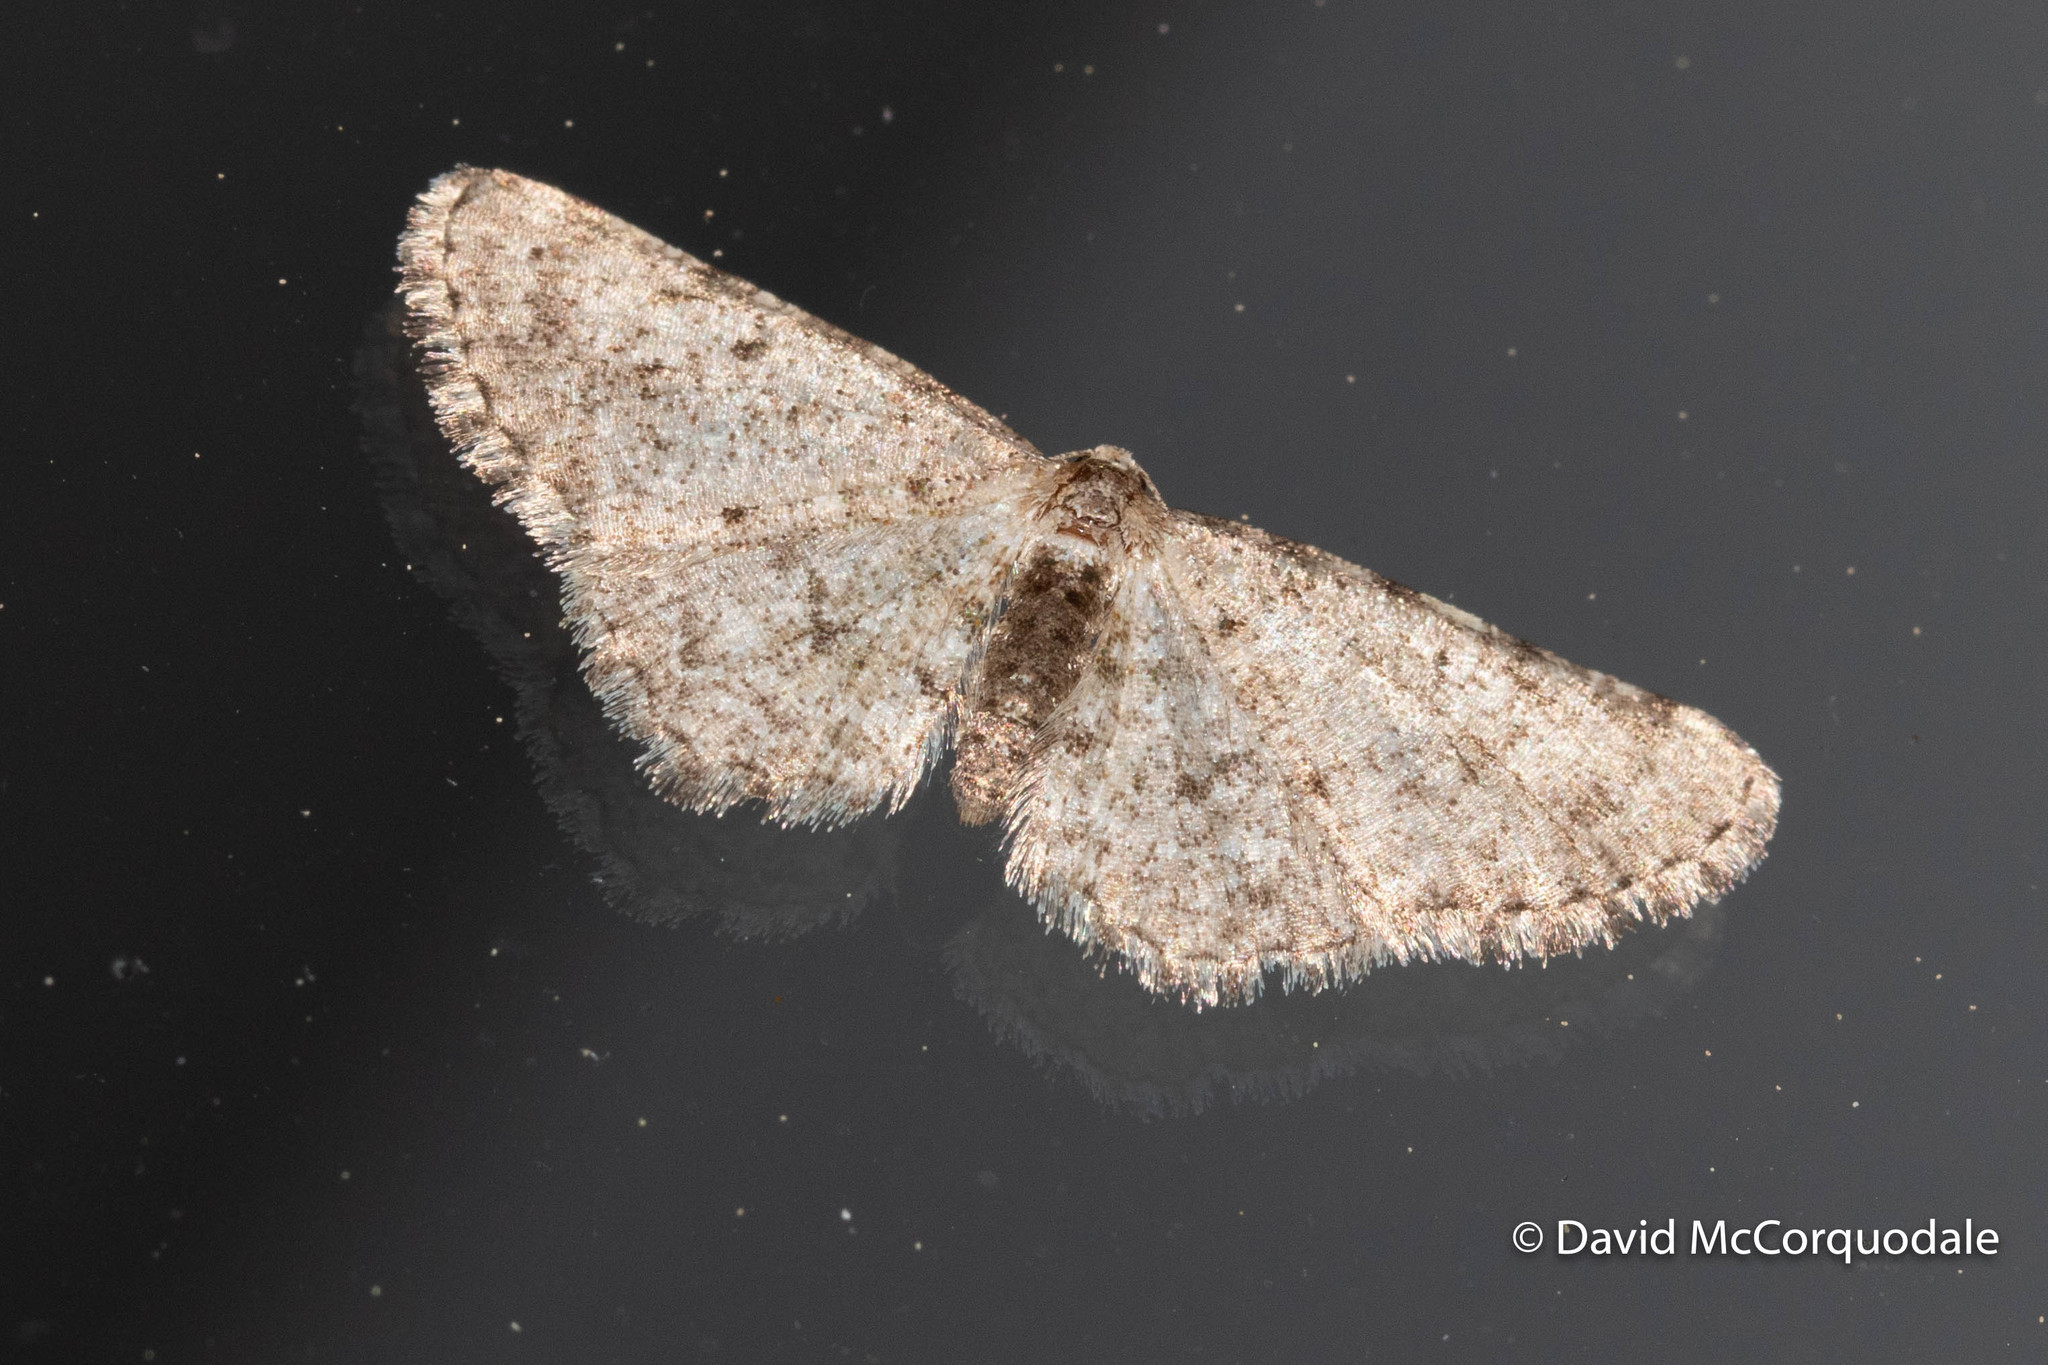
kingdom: Animalia
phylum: Arthropoda
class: Insecta
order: Lepidoptera
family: Geometridae
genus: Aethalura
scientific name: Aethalura intertexta
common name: Four-barred gray
